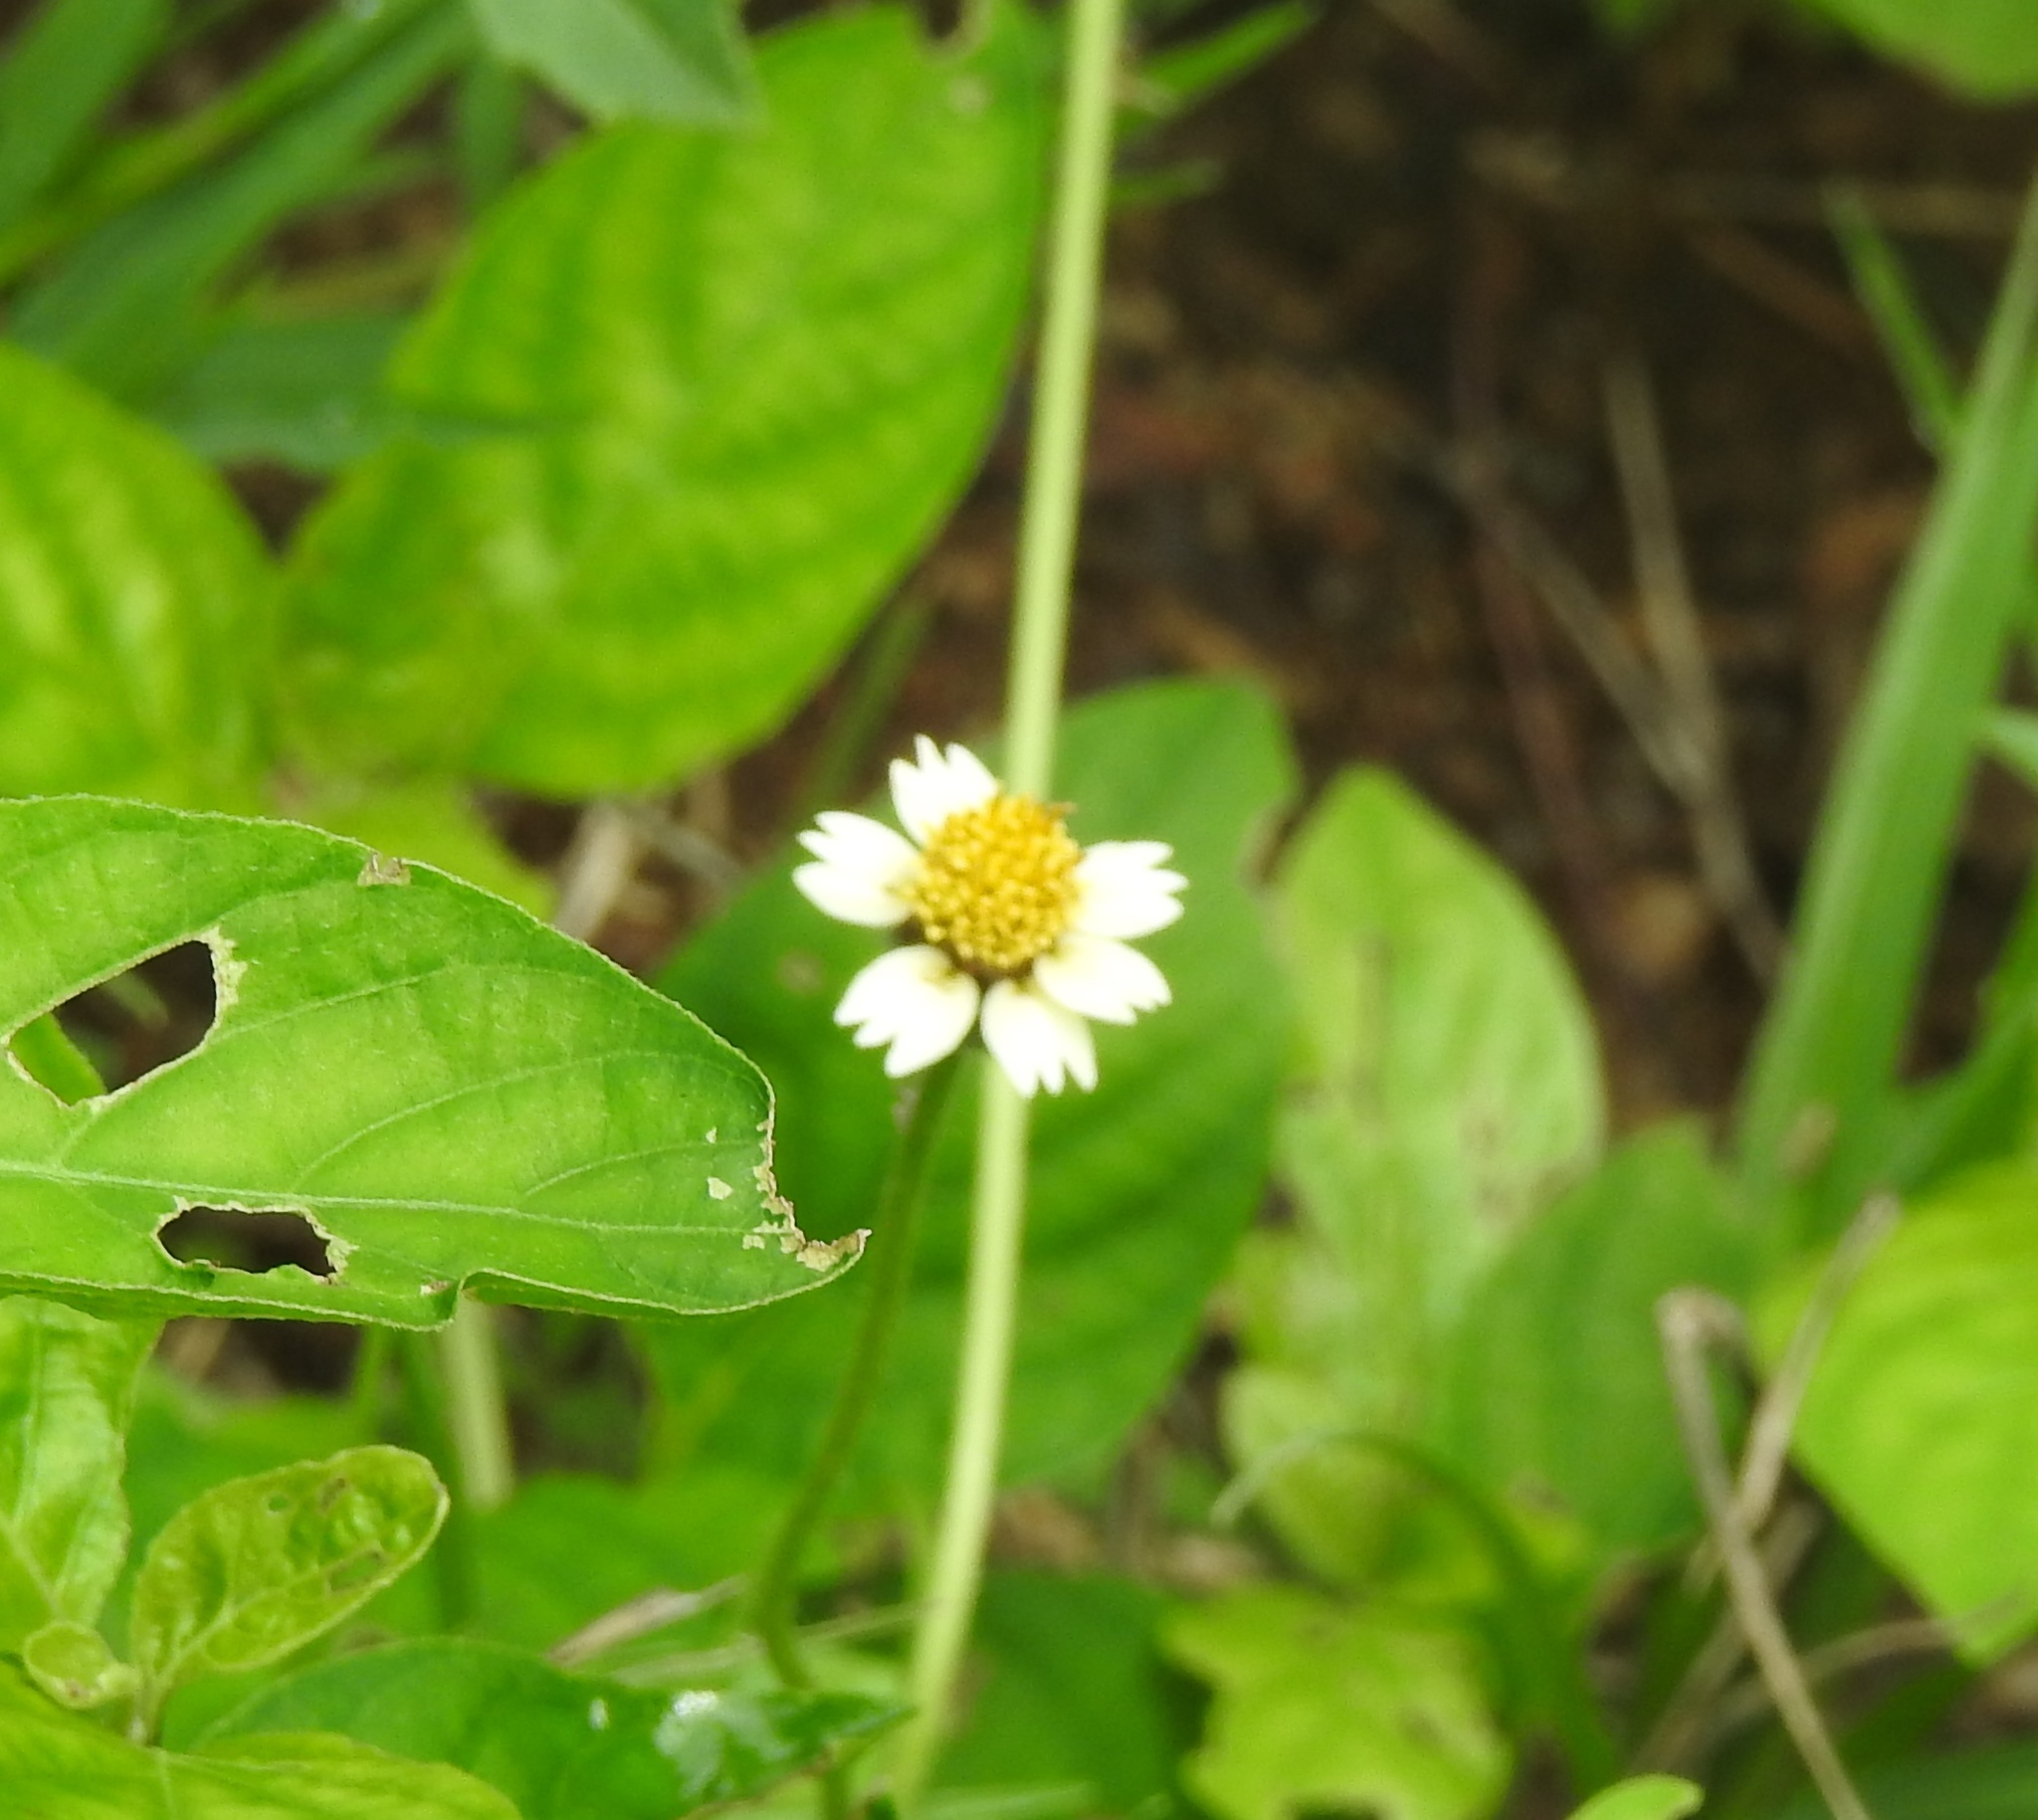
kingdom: Plantae
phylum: Tracheophyta
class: Magnoliopsida
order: Asterales
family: Asteraceae
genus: Tridax
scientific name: Tridax procumbens
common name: Coatbuttons
